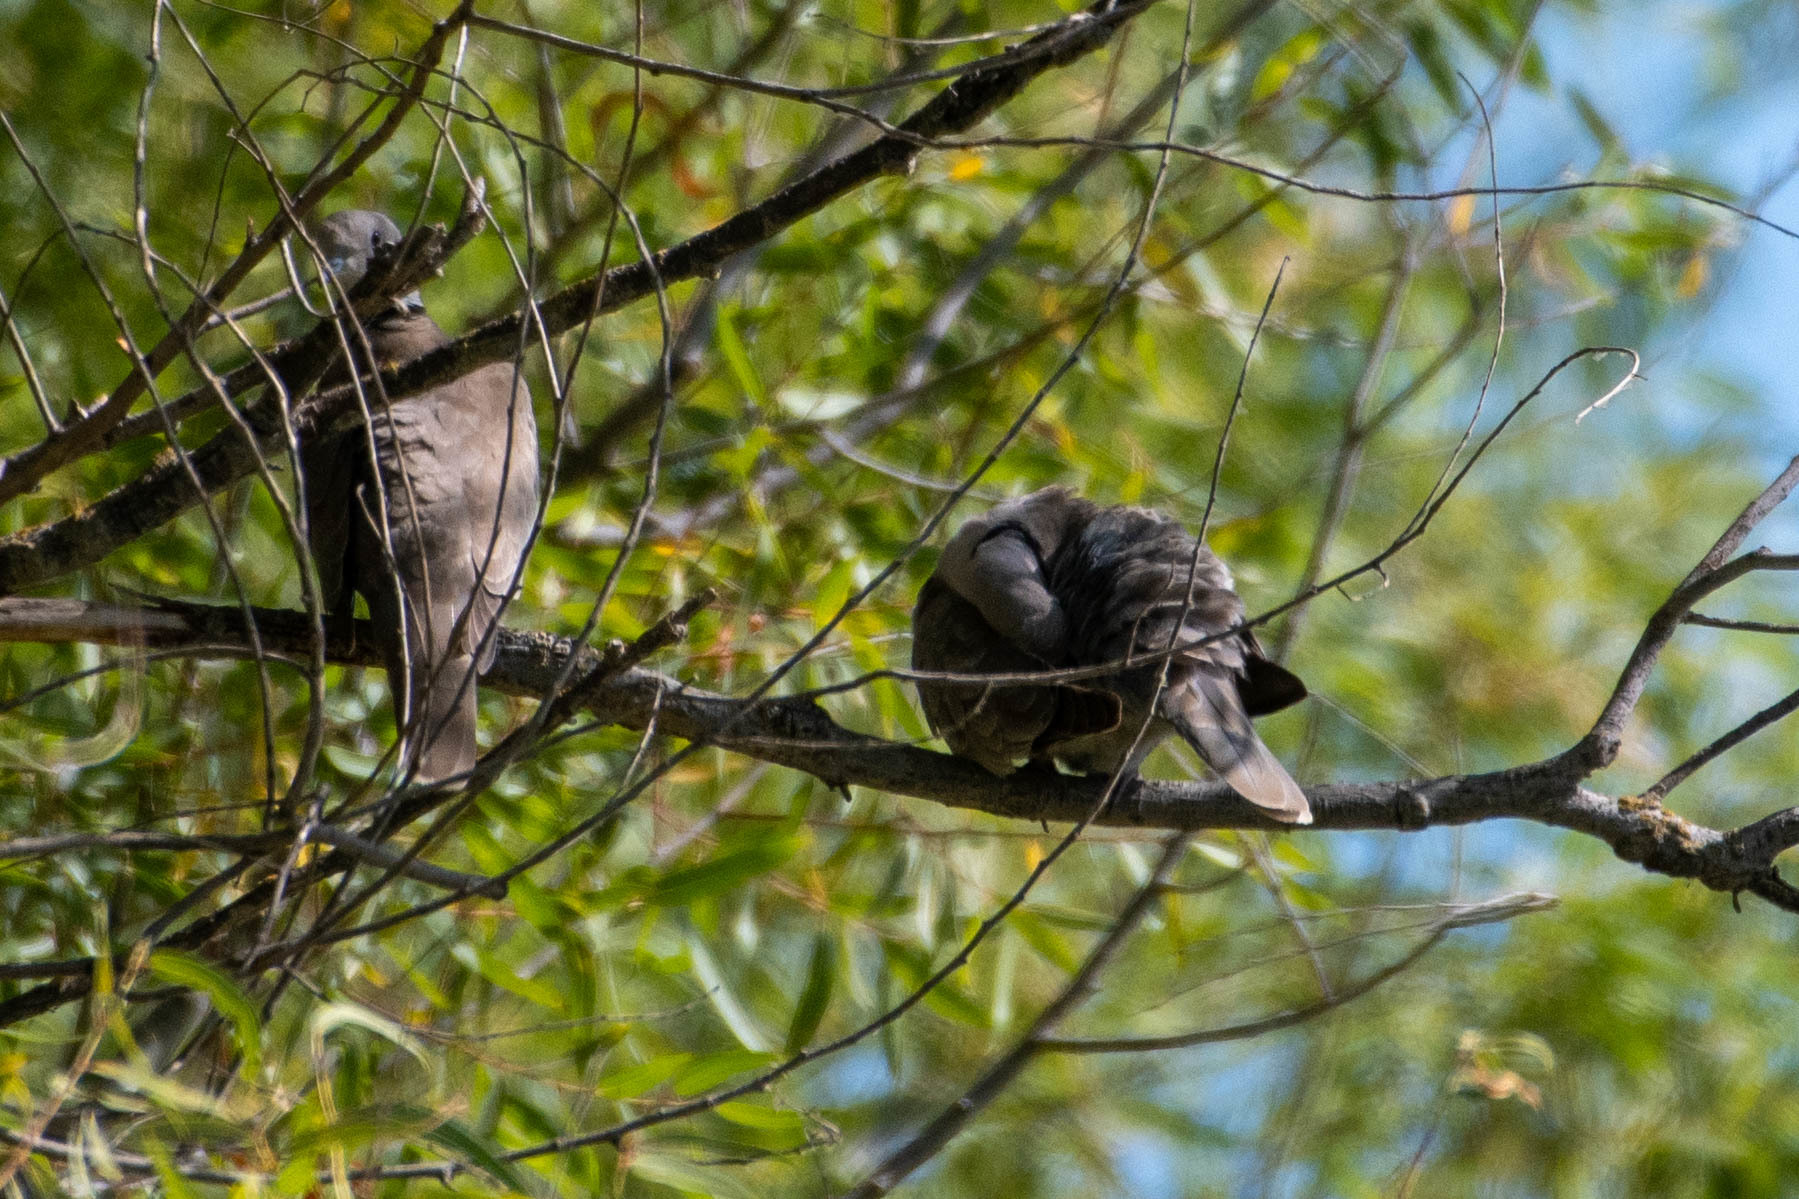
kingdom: Animalia
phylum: Chordata
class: Aves
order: Columbiformes
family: Columbidae
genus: Streptopelia
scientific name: Streptopelia decaocto
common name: Eurasian collared dove
